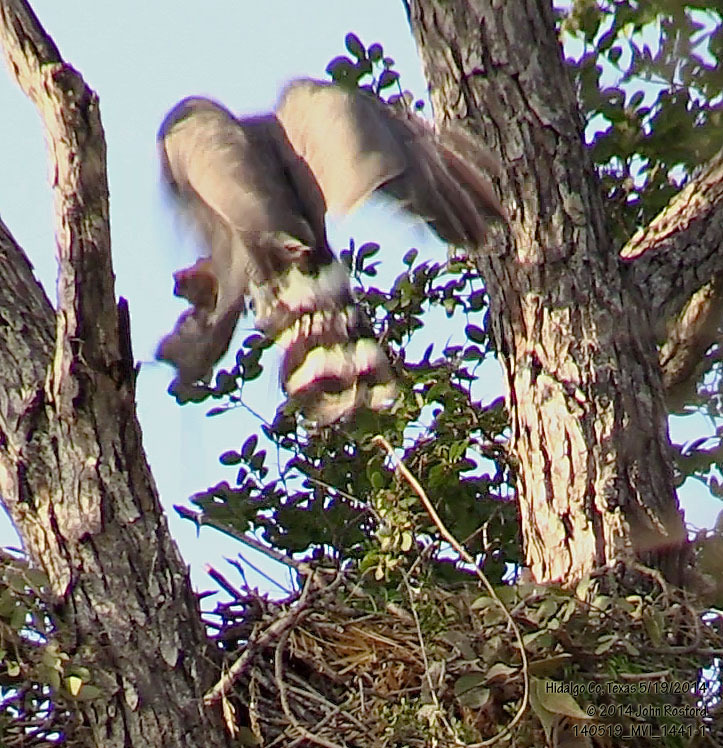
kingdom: Animalia
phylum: Chordata
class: Aves
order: Accipitriformes
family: Accipitridae
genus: Buteo
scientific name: Buteo nitidus
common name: Grey-lined hawk
